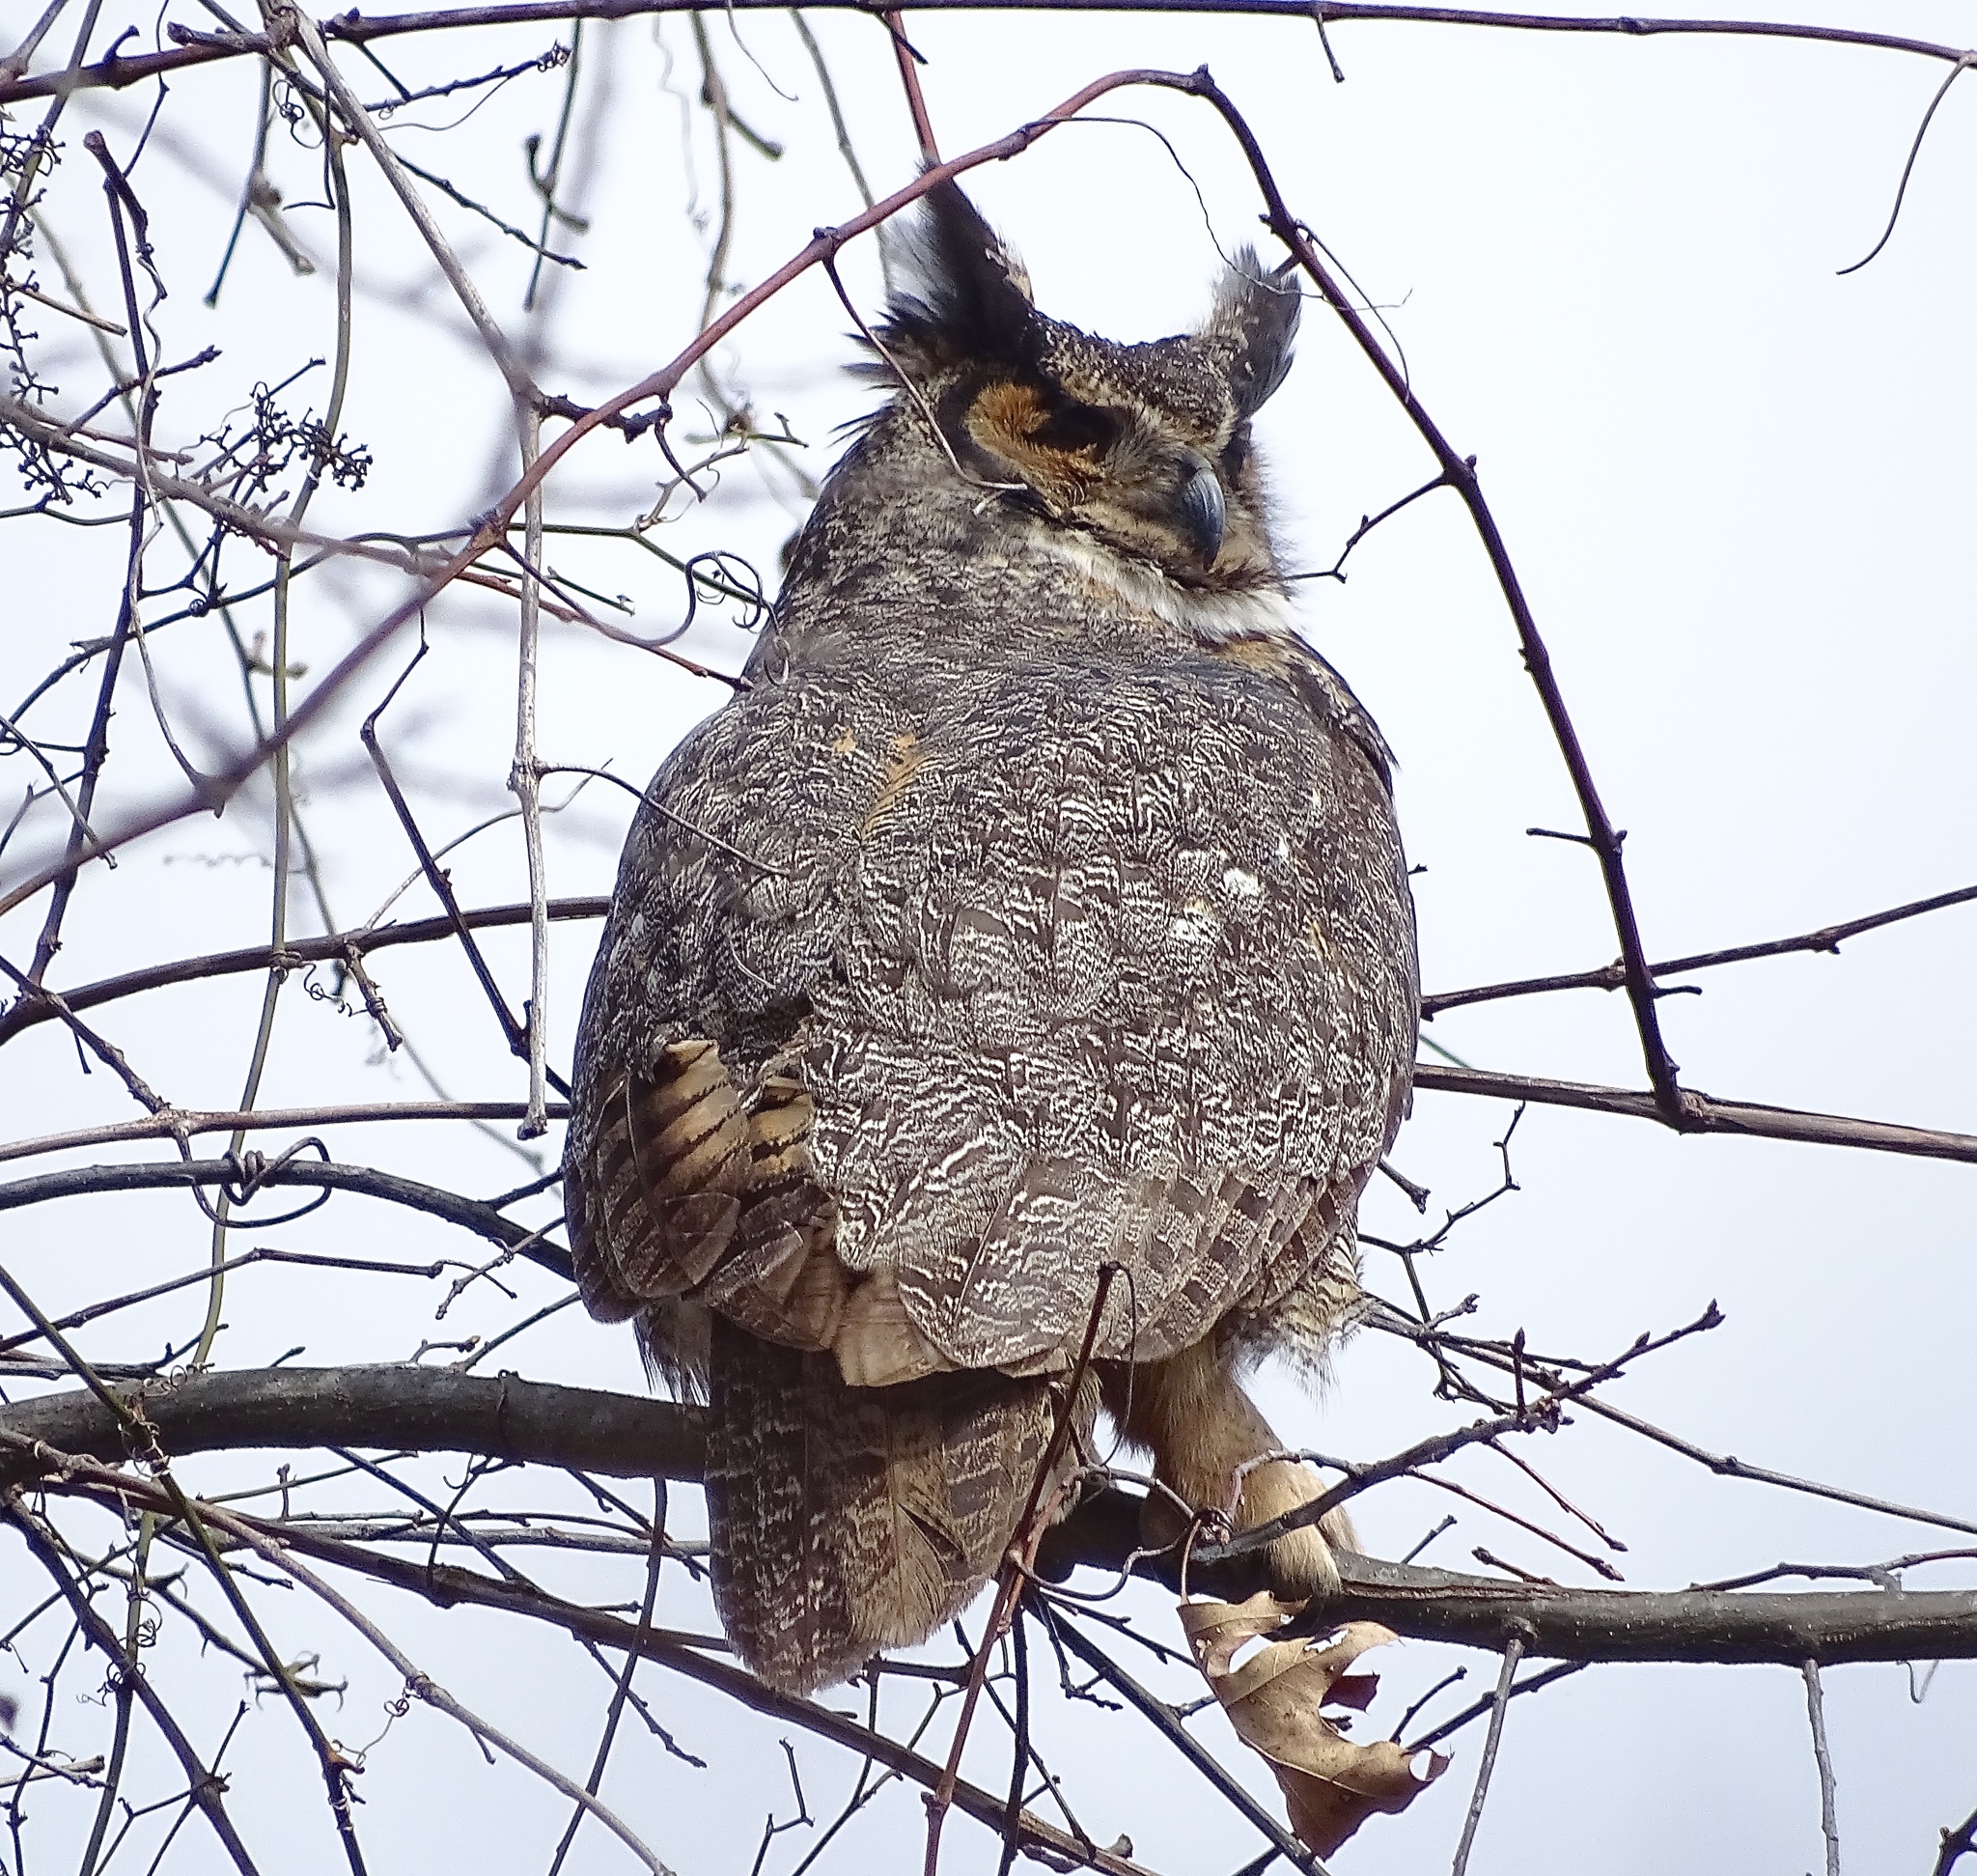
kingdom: Animalia
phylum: Chordata
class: Aves
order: Strigiformes
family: Strigidae
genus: Bubo
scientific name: Bubo virginianus
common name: Great horned owl
